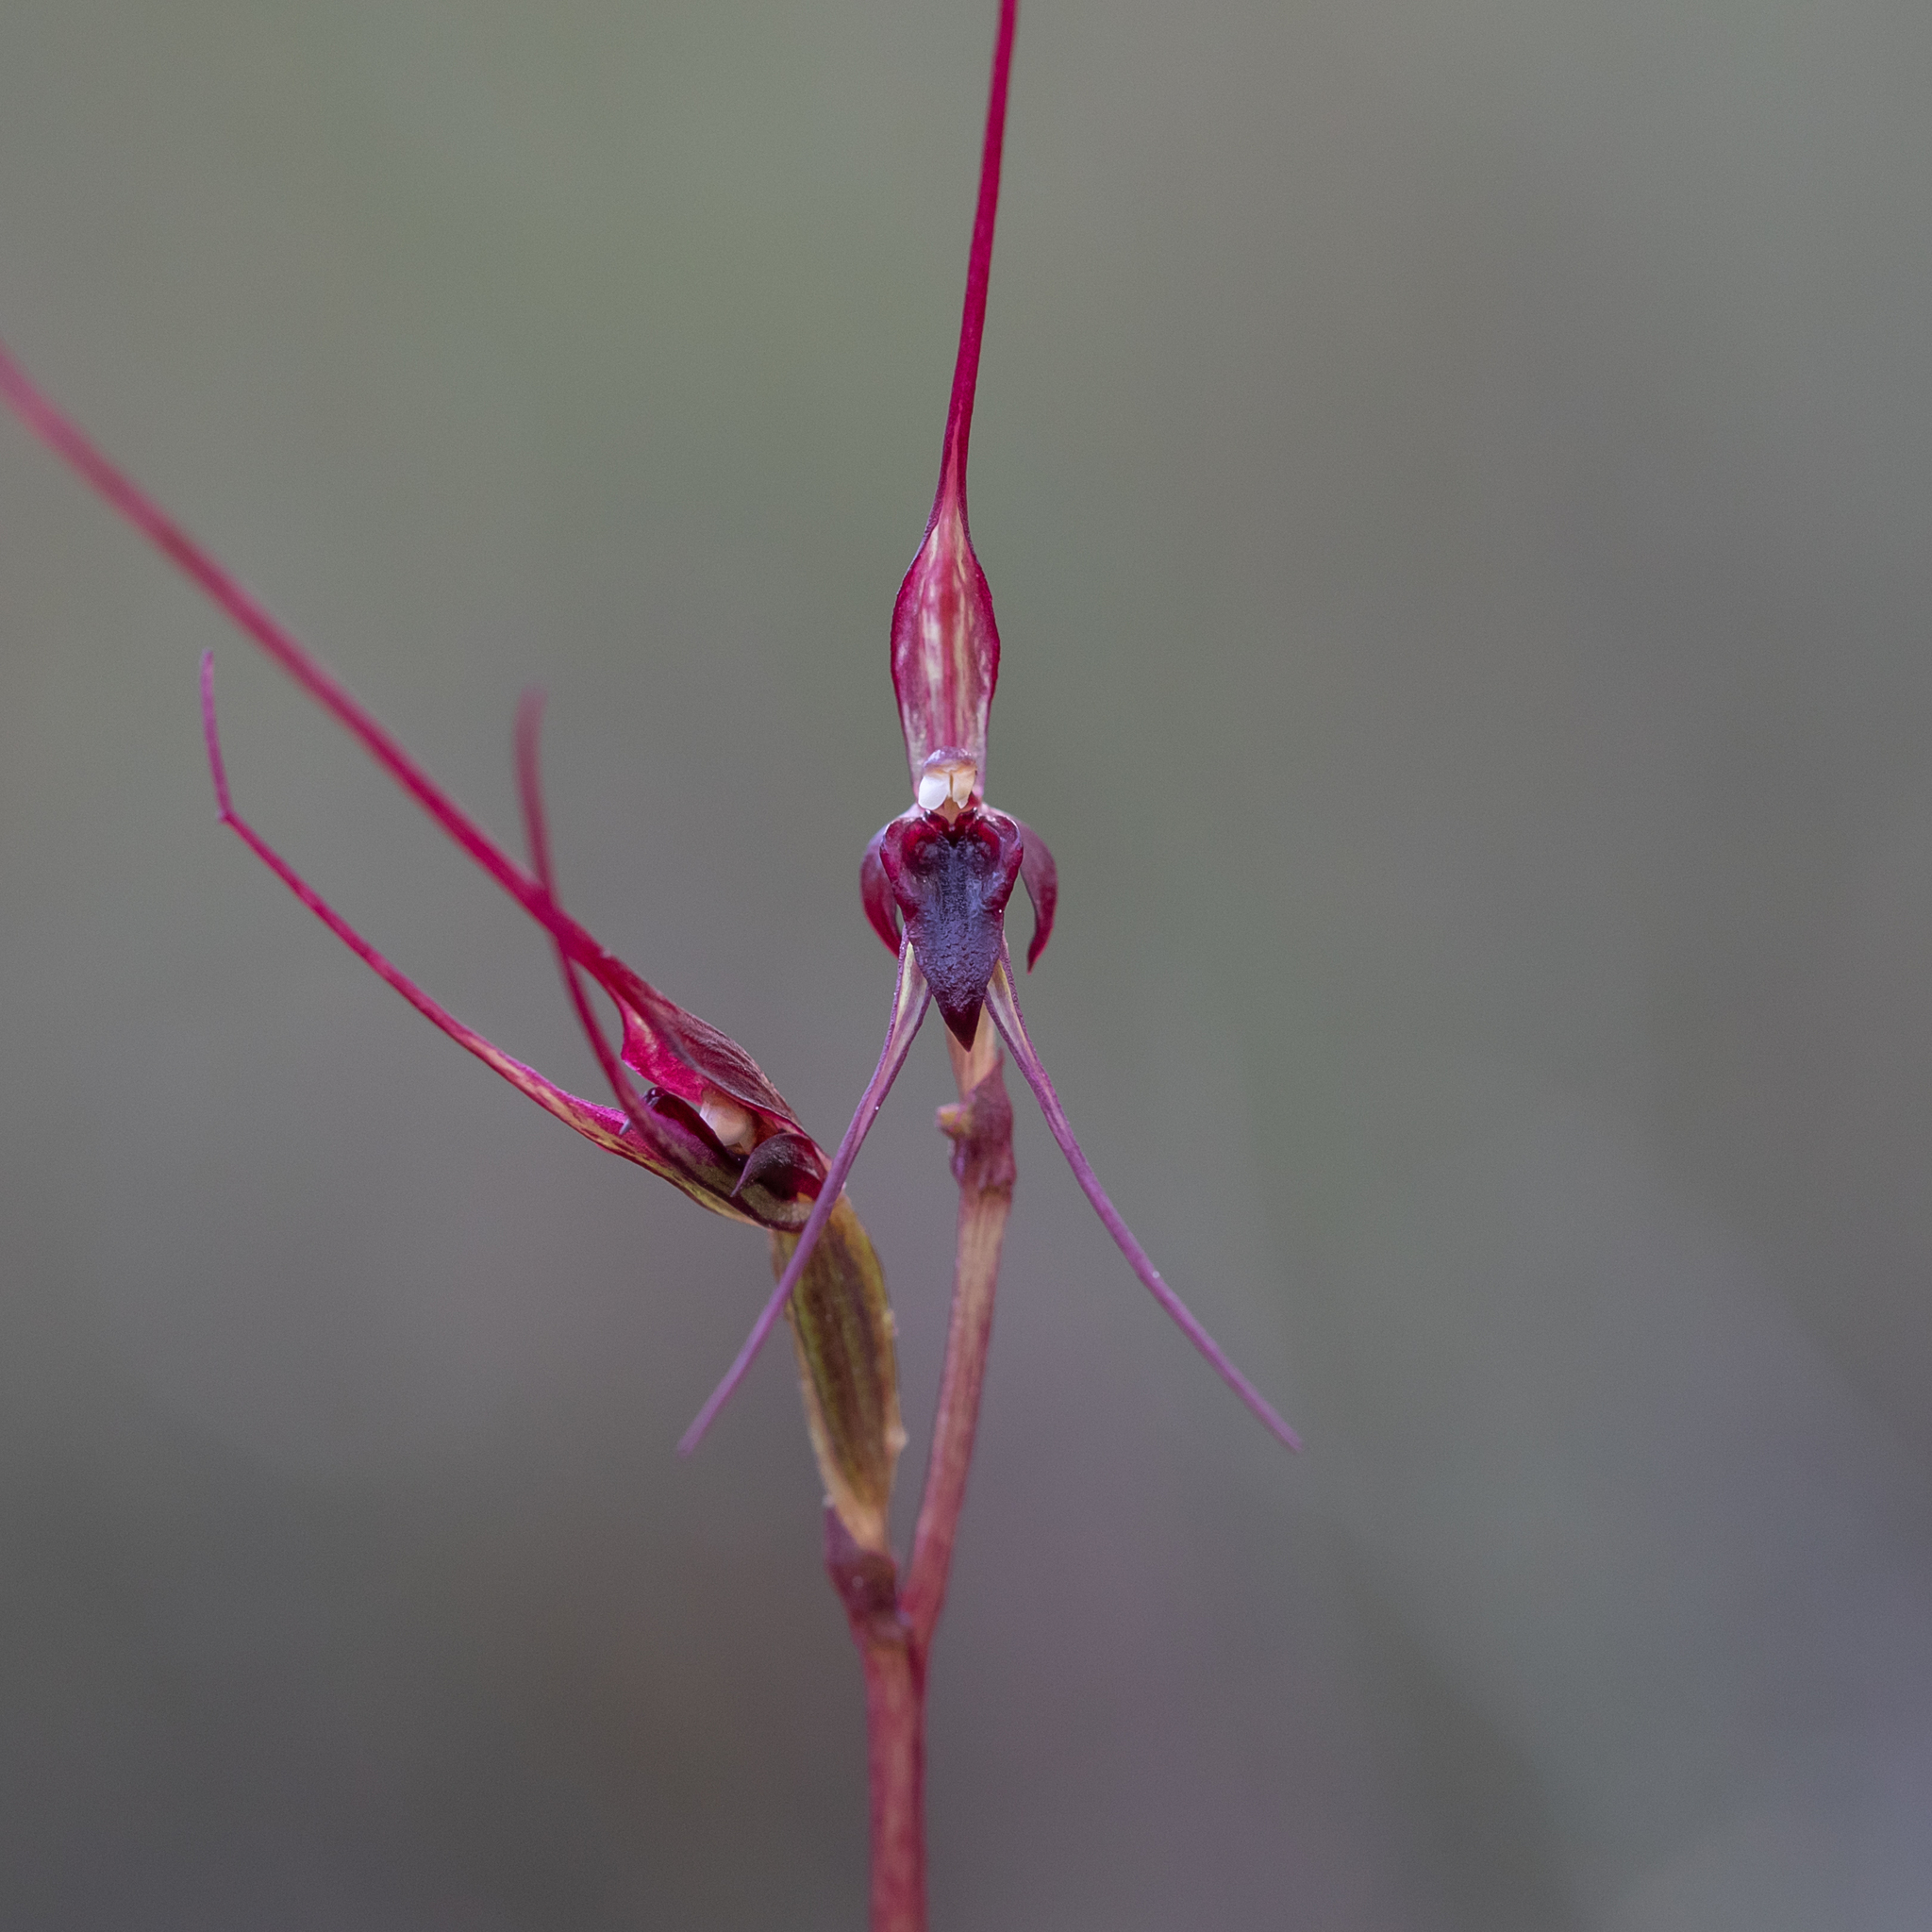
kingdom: Plantae
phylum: Tracheophyta
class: Liliopsida
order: Asparagales
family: Orchidaceae
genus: Acianthus
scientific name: Acianthus caudatus
